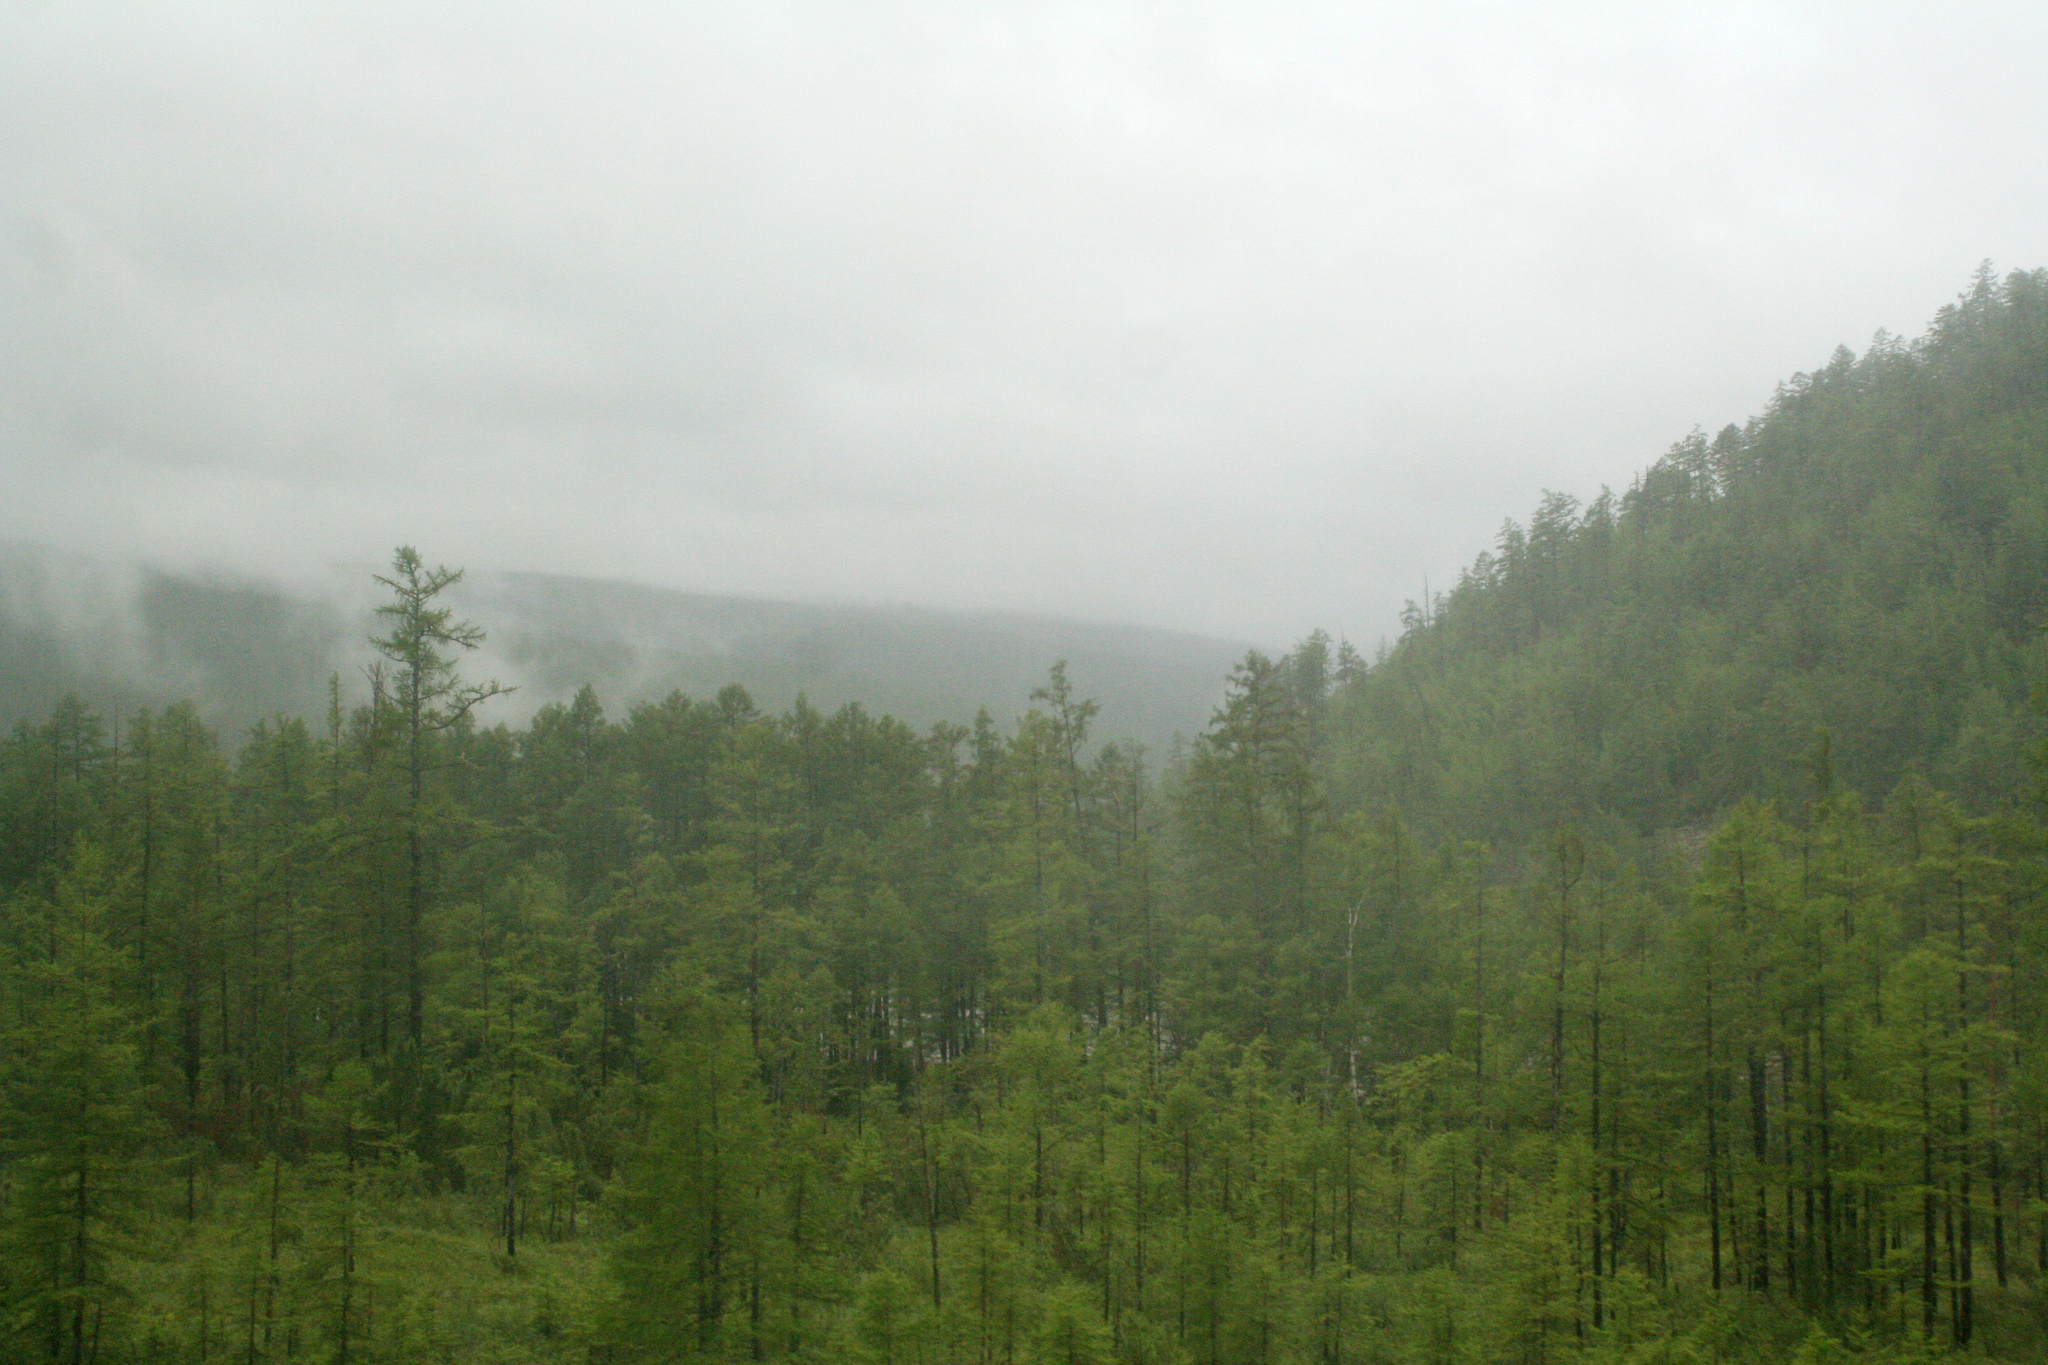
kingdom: Plantae
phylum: Tracheophyta
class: Pinopsida
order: Pinales
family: Pinaceae
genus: Larix
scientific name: Larix gmelinii
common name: Dahurian larch
